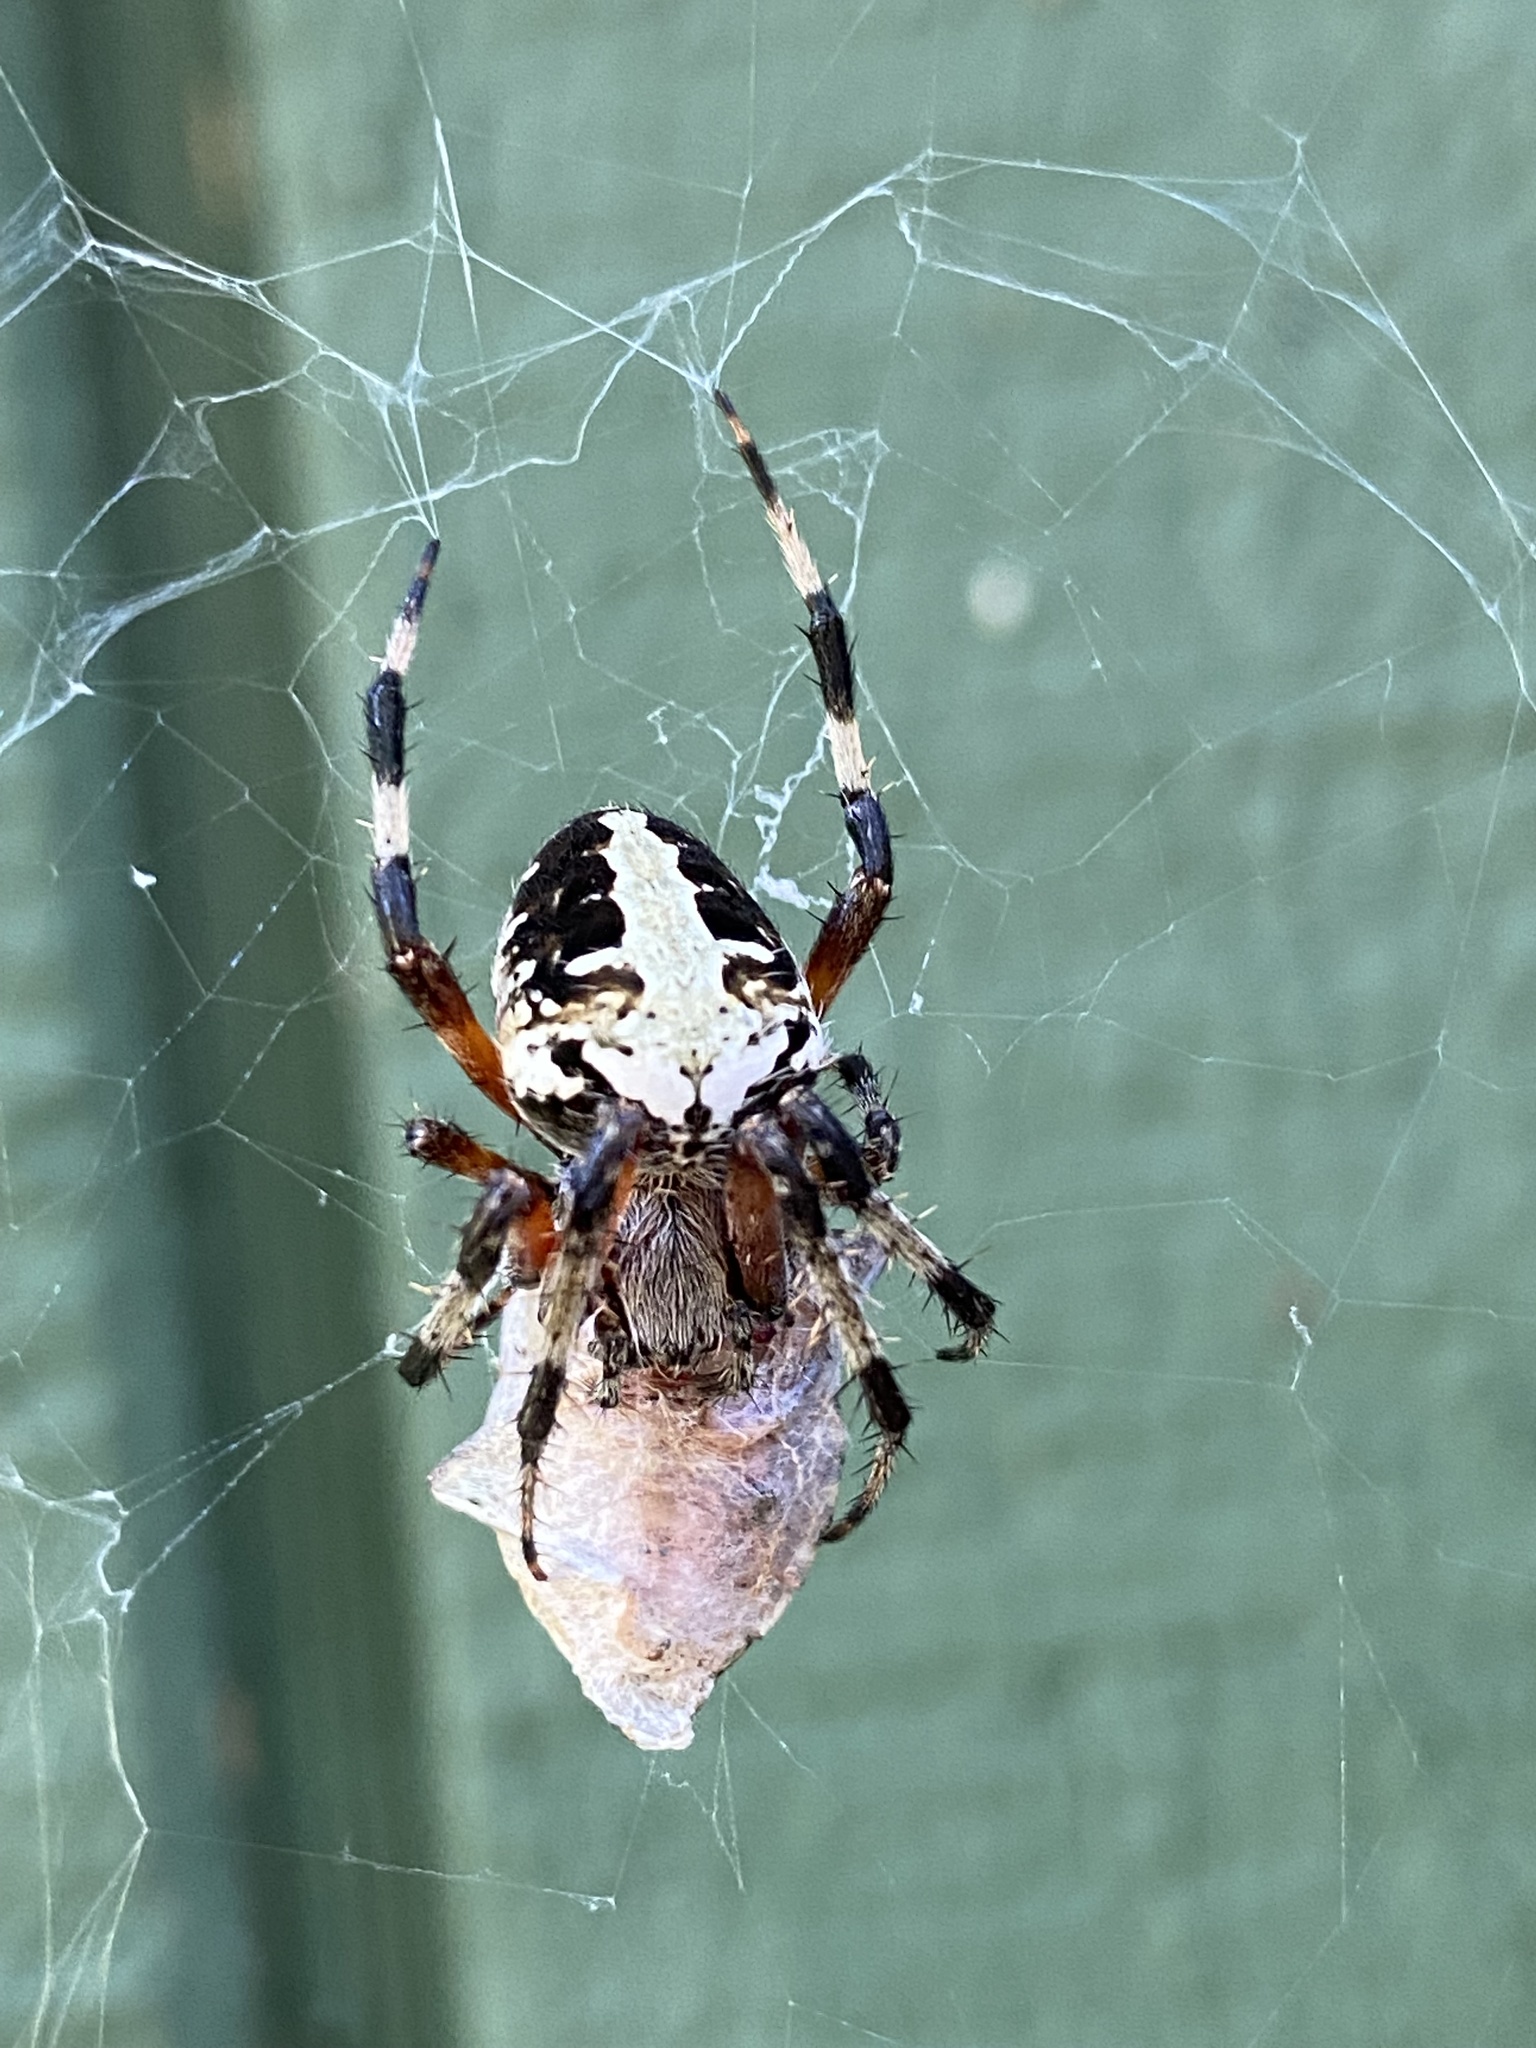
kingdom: Animalia
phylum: Arthropoda
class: Arachnida
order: Araneae
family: Araneidae
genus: Neoscona
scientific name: Neoscona domiciliorum
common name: Red-femured spotted orbweaver
